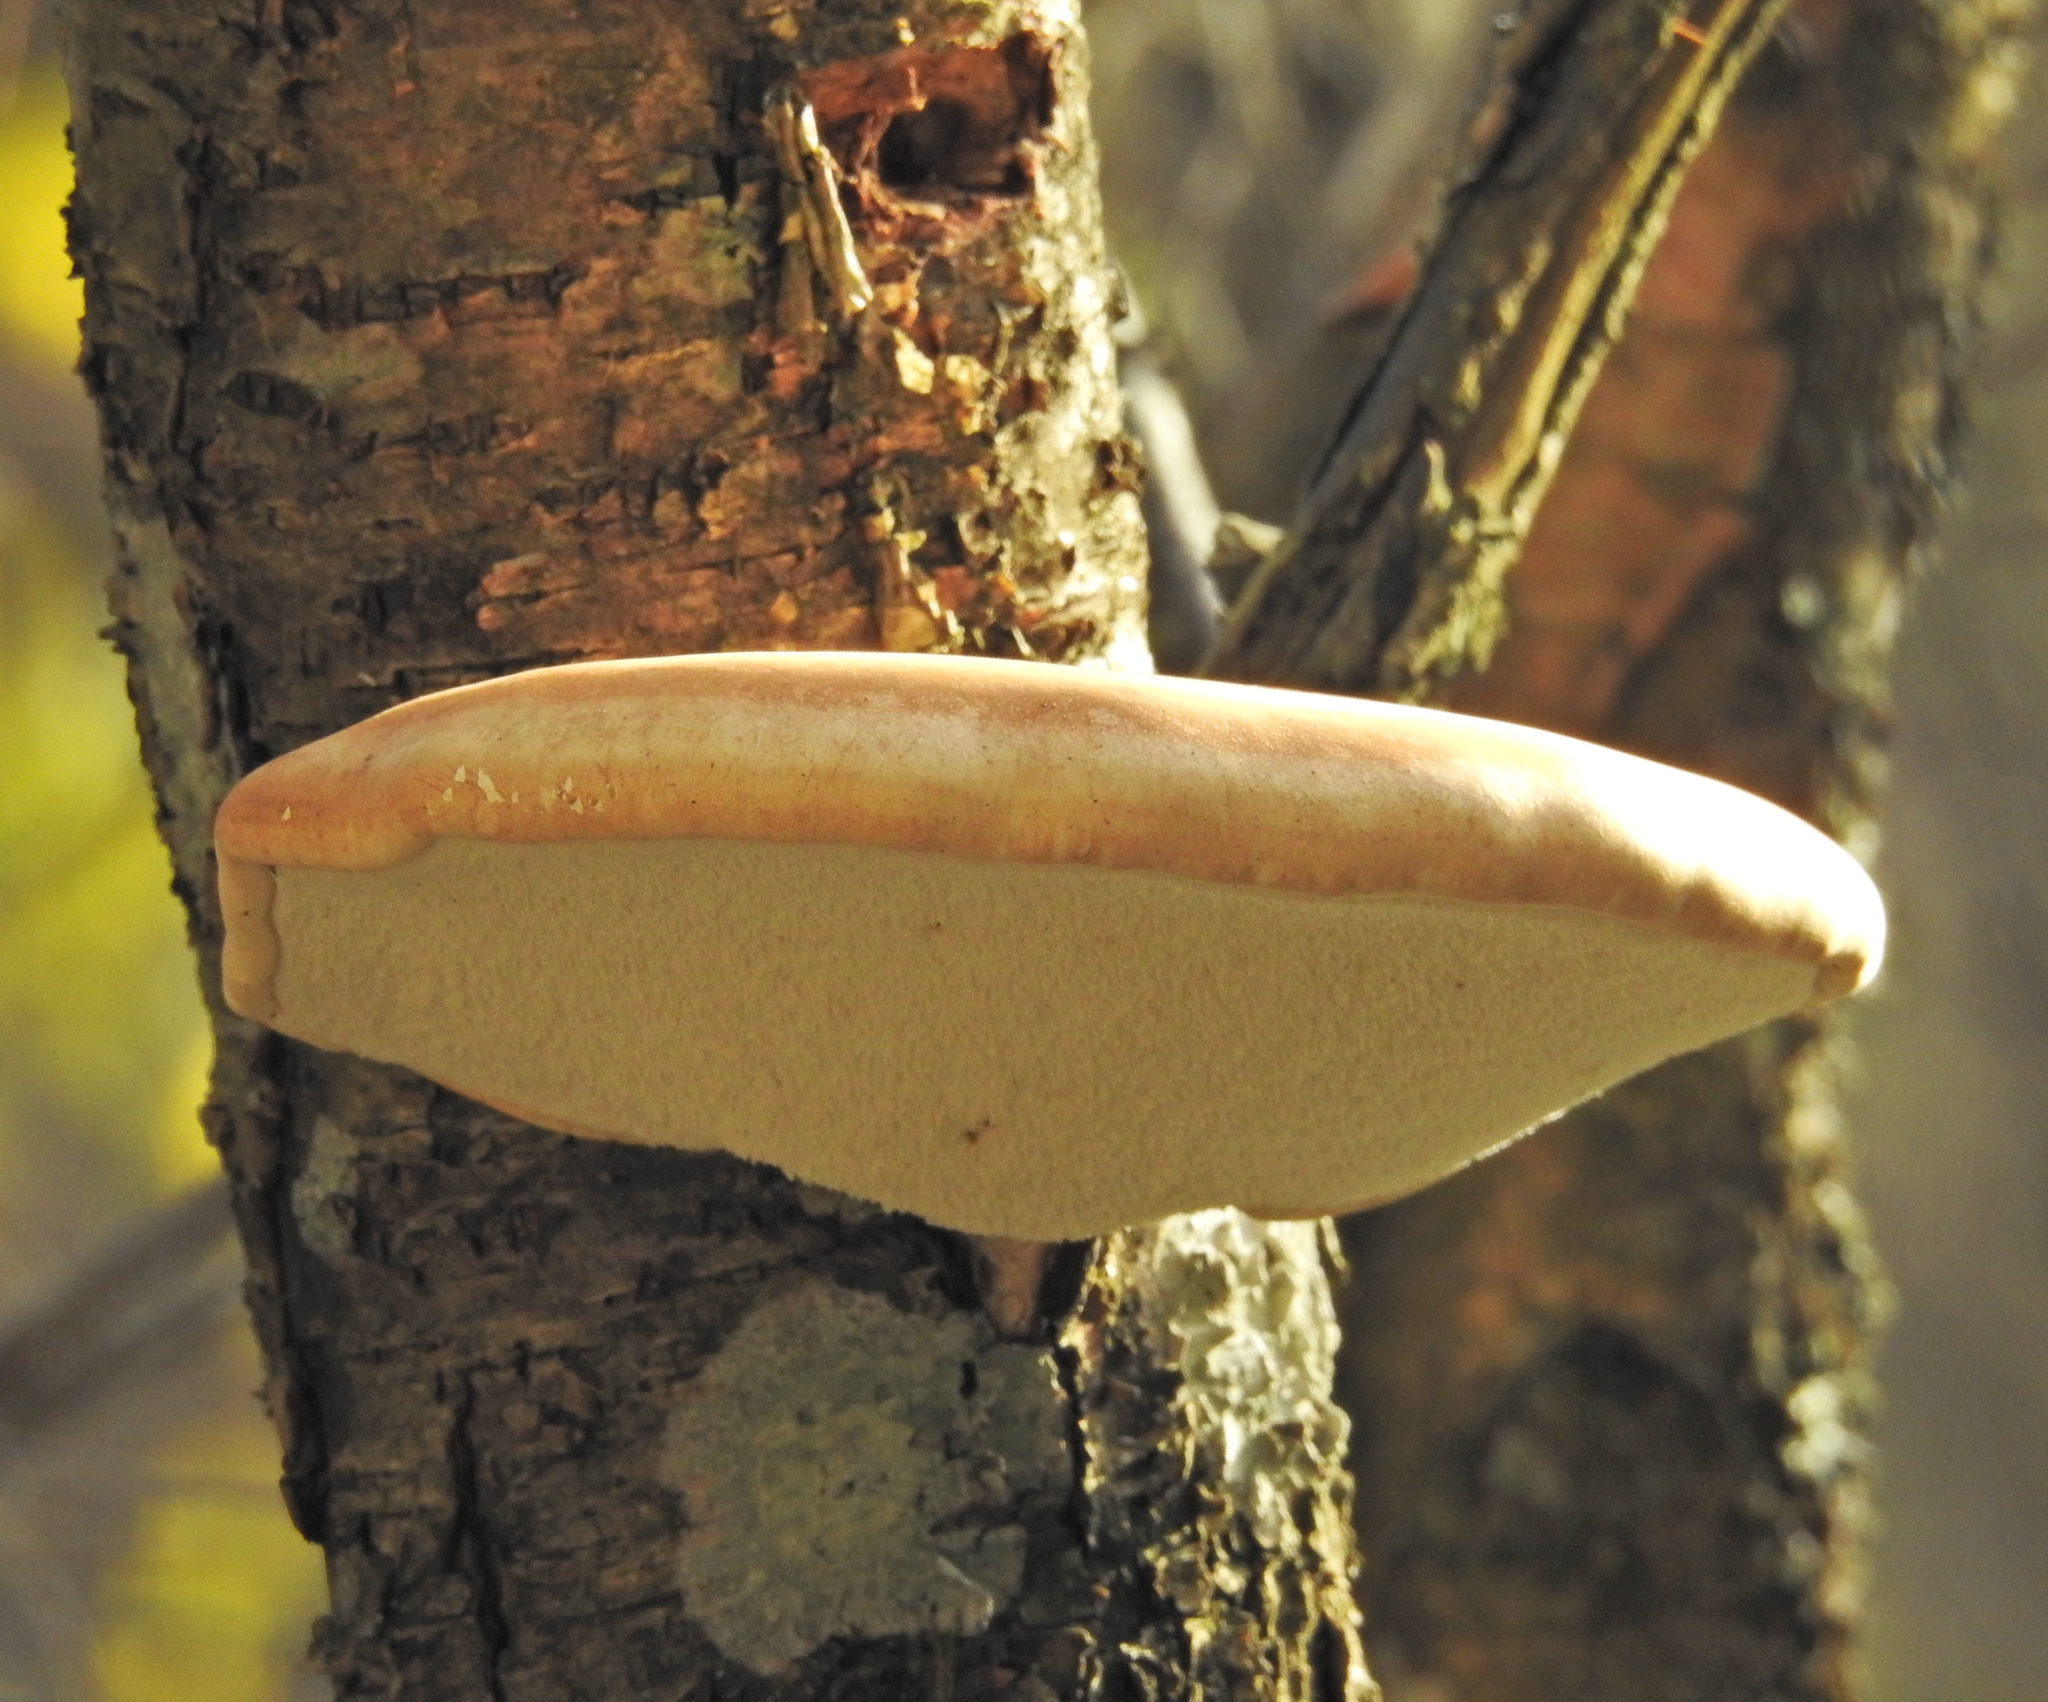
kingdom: Fungi
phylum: Basidiomycota
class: Agaricomycetes
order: Polyporales
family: Fomitopsidaceae
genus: Fomitopsis
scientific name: Fomitopsis betulina
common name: Birch polypore
